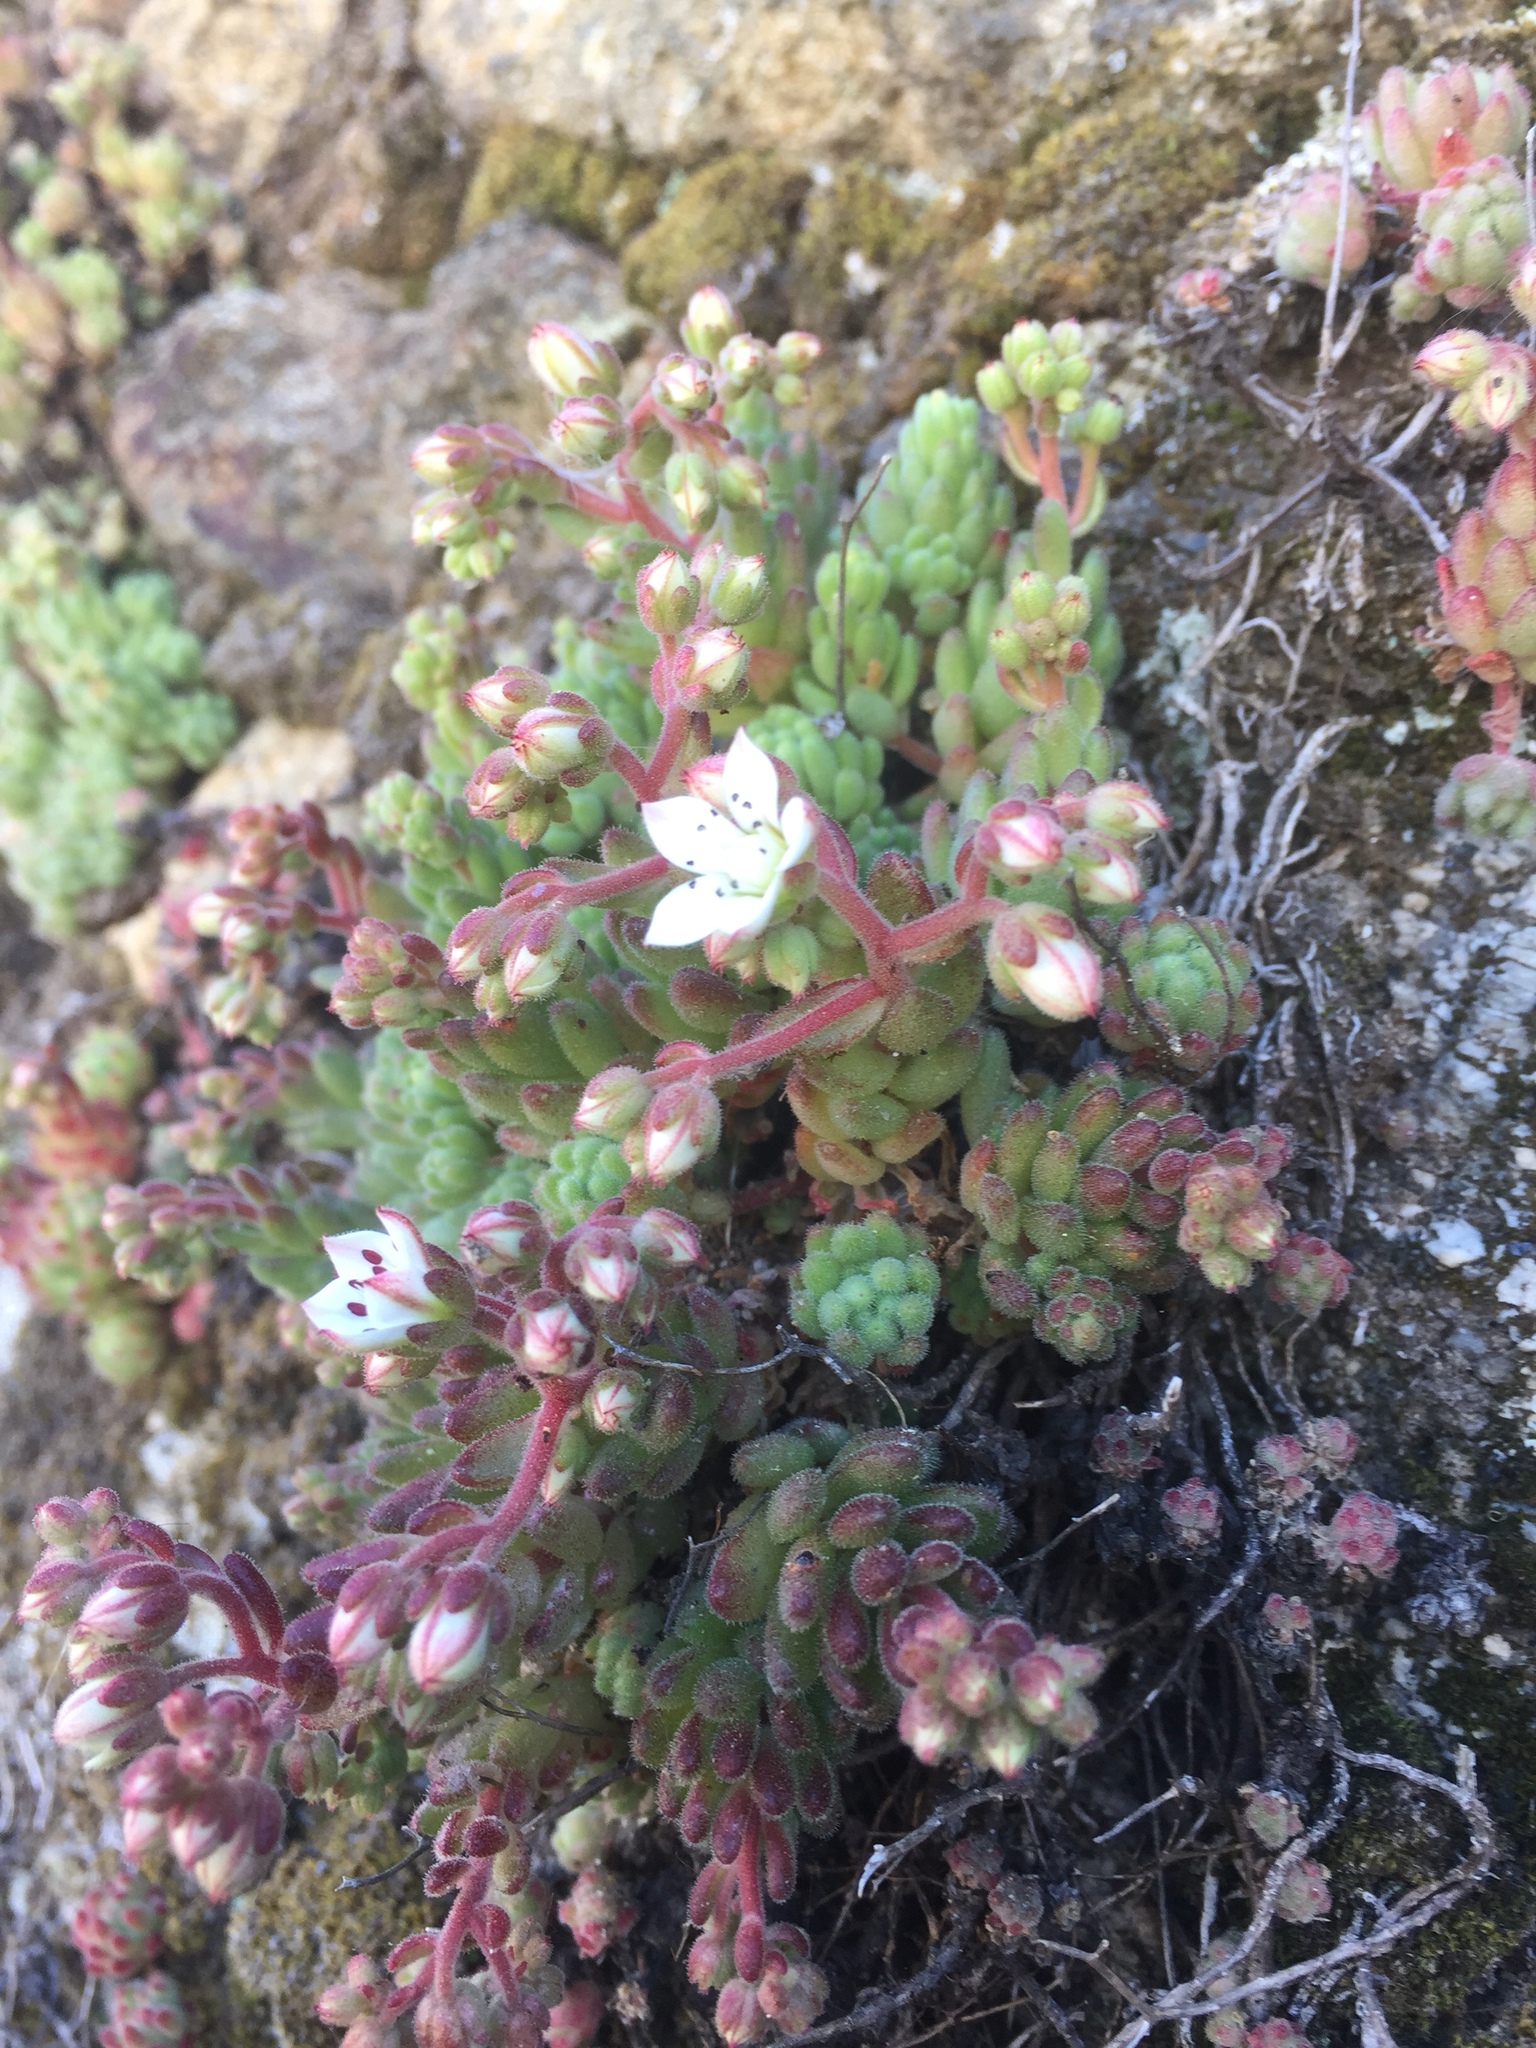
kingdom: Plantae
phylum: Tracheophyta
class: Magnoliopsida
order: Saxifragales
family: Crassulaceae
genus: Sedum
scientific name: Sedum hirsutum
